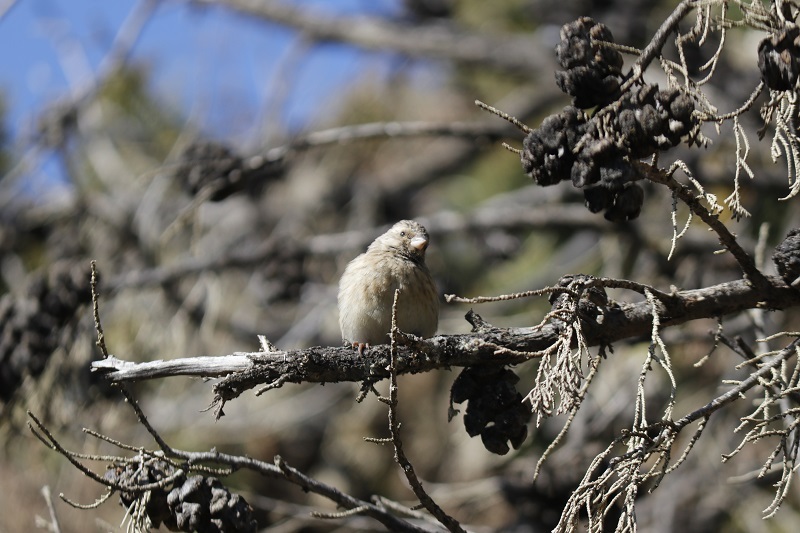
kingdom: Animalia
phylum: Chordata
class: Aves
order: Passeriformes
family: Fringillidae
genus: Crithagra
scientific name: Crithagra atrogularis
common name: Black-throated canary
